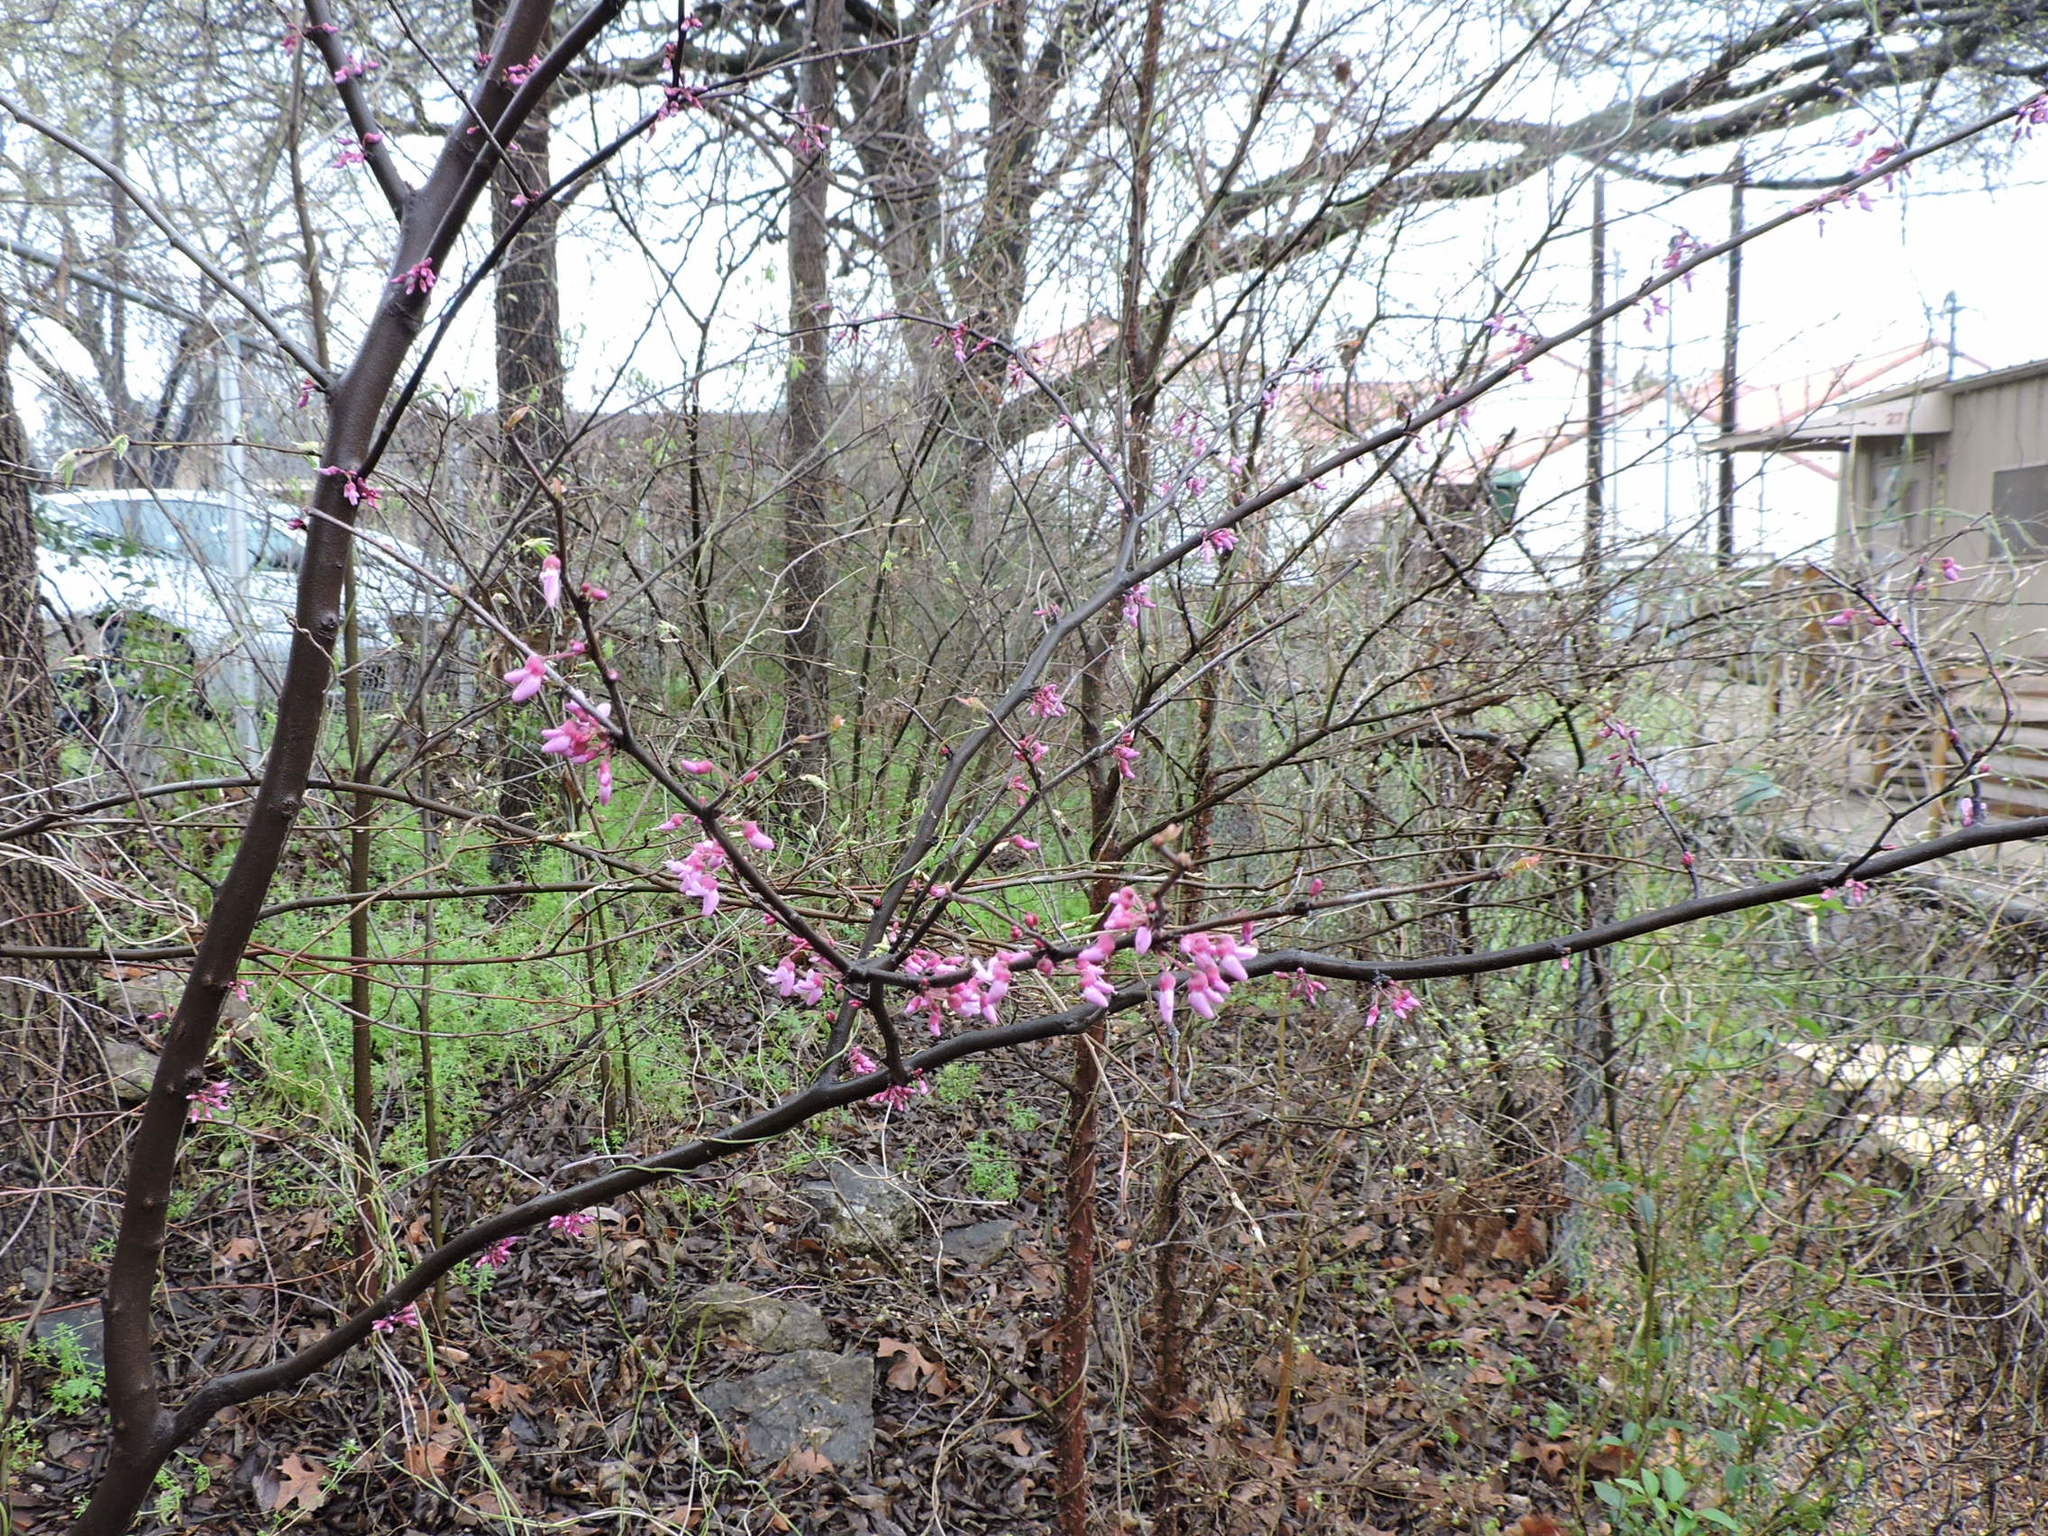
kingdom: Plantae
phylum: Tracheophyta
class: Magnoliopsida
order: Fabales
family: Fabaceae
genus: Cercis
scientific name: Cercis canadensis
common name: Eastern redbud
